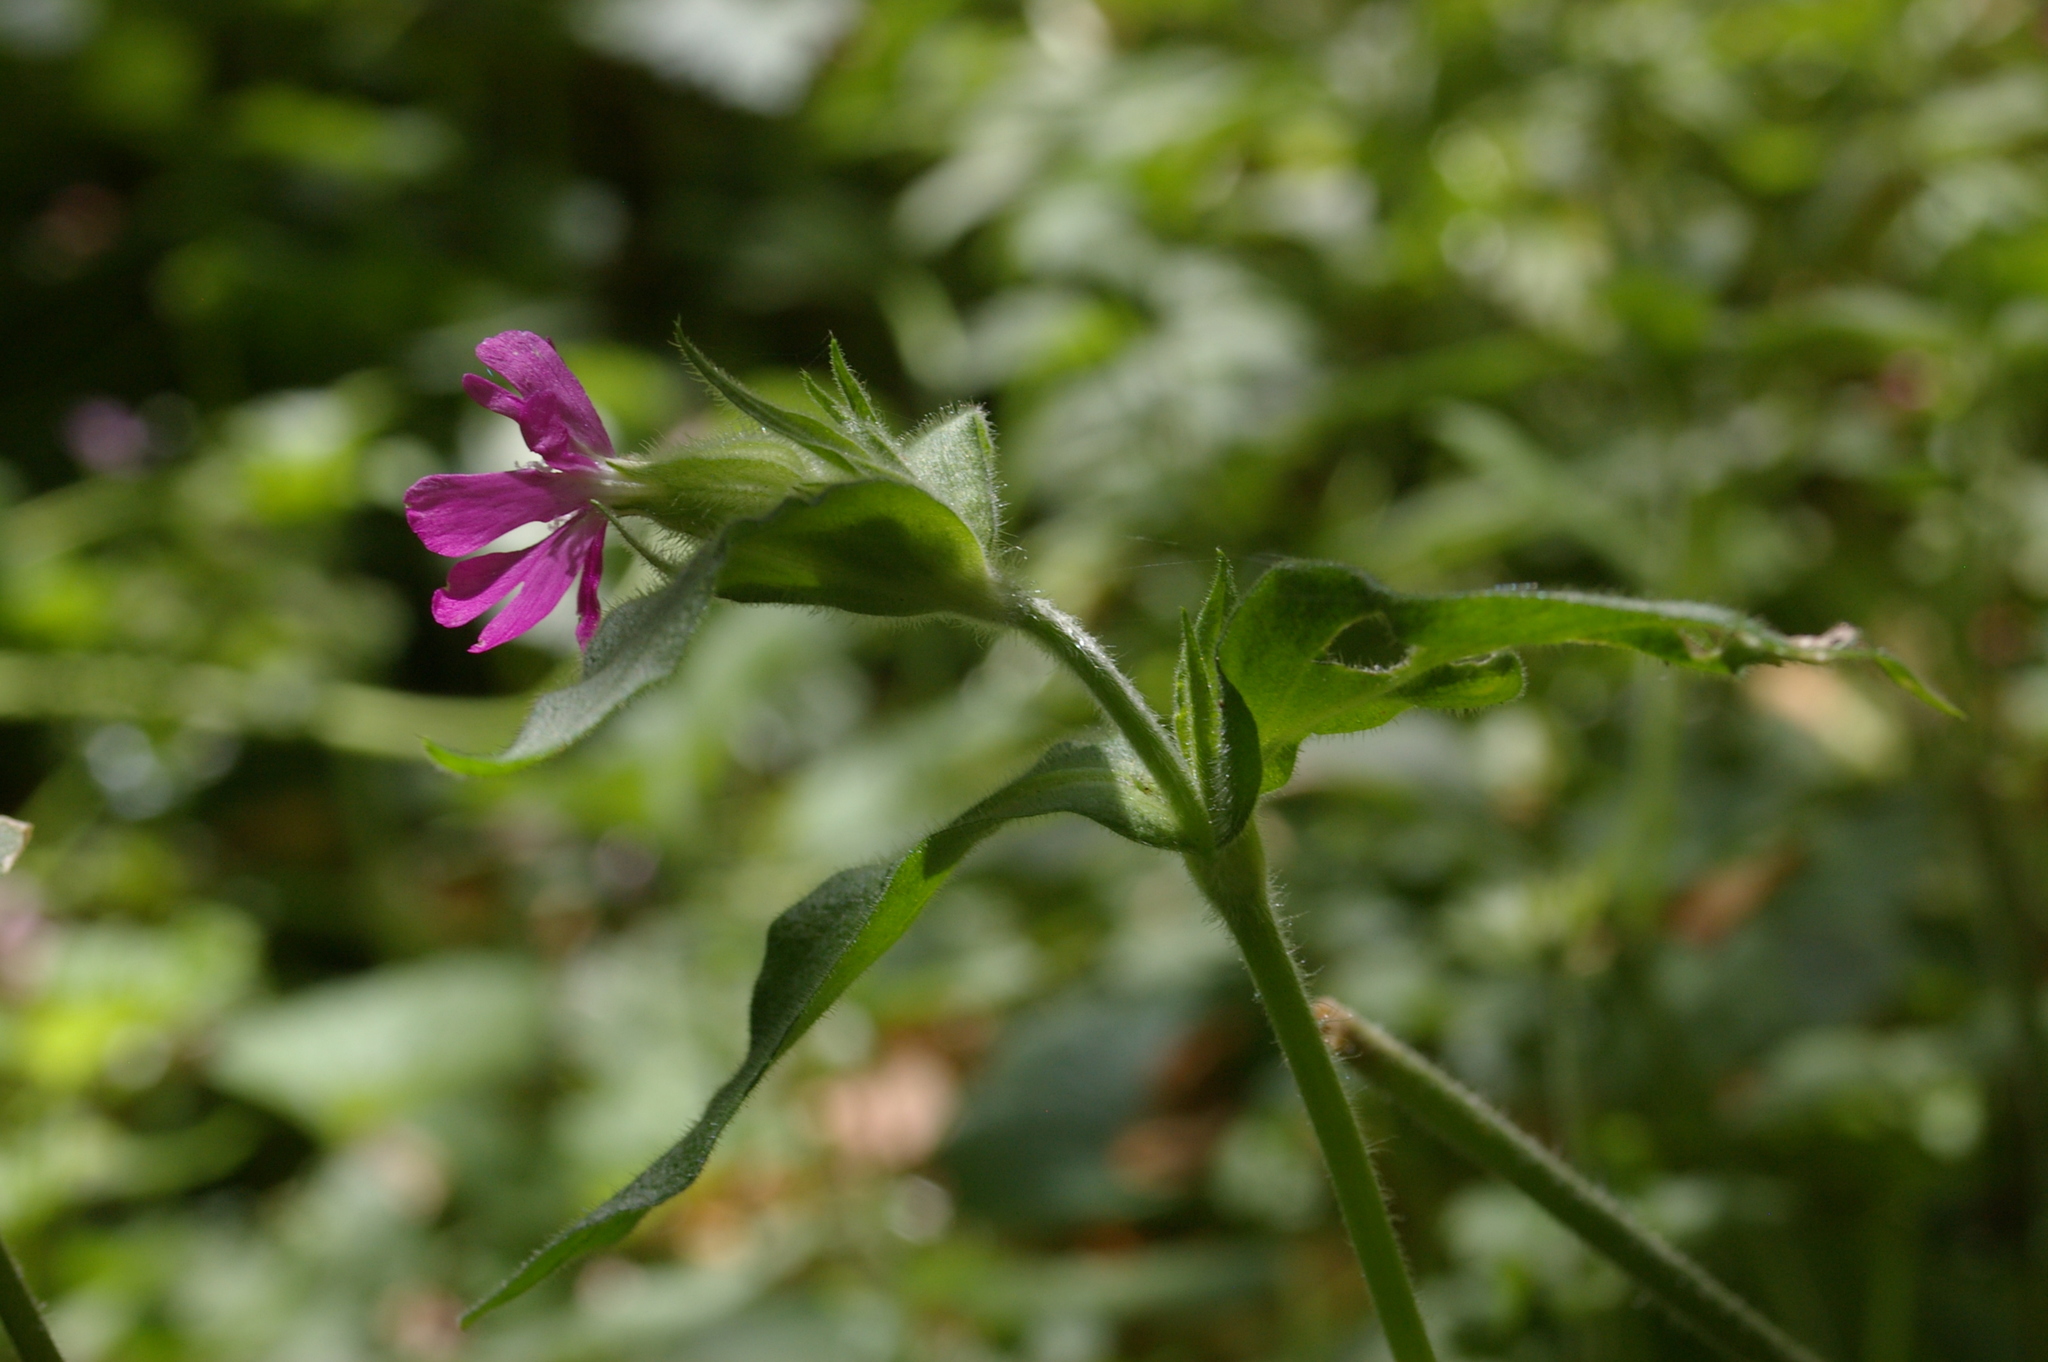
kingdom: Plantae
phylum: Tracheophyta
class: Magnoliopsida
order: Caryophyllales
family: Caryophyllaceae
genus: Silene
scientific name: Silene dioica
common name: Red campion
